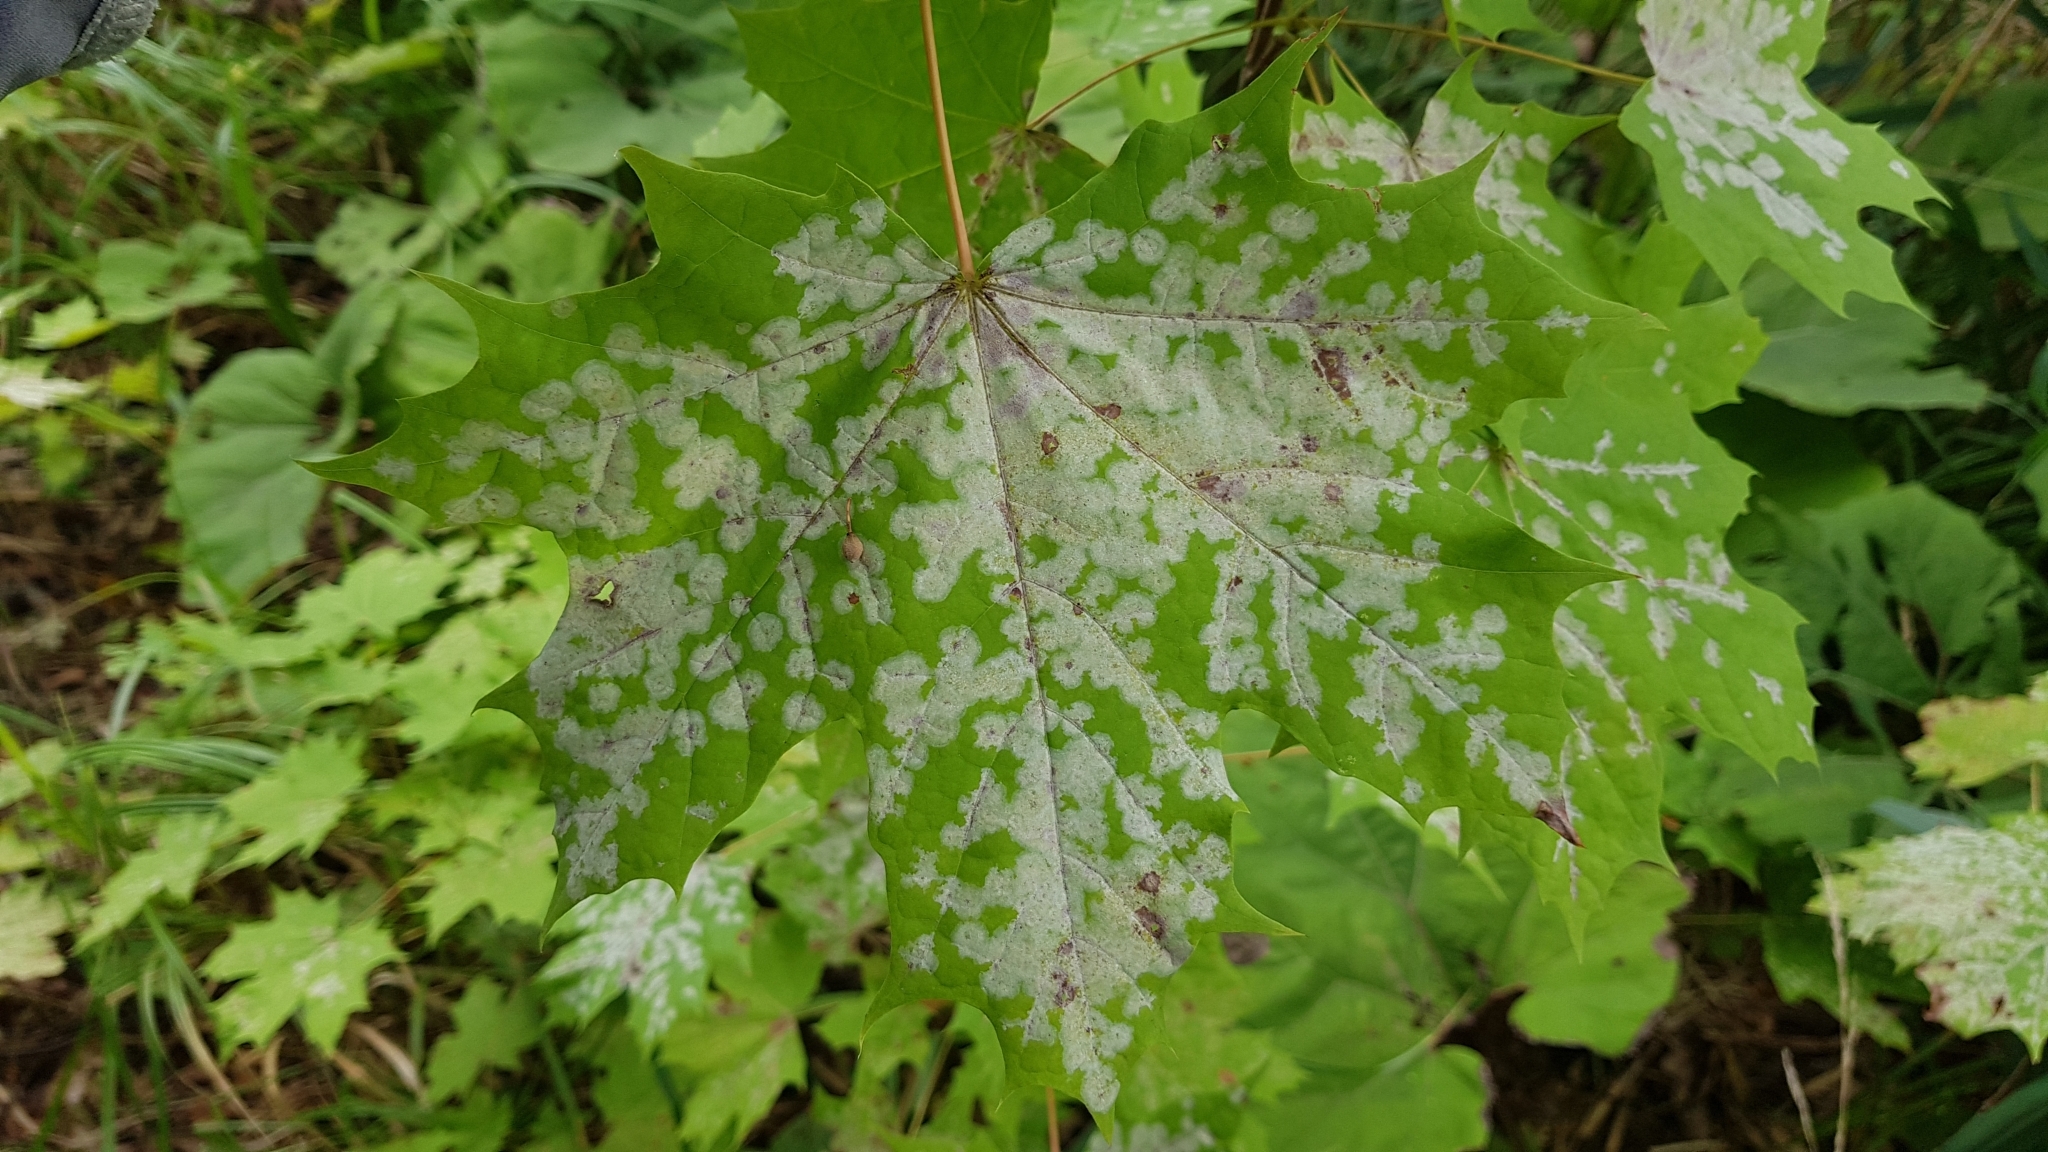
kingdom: Fungi
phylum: Ascomycota
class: Leotiomycetes
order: Helotiales
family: Erysiphaceae
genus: Sawadaea
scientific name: Sawadaea tulasnei
